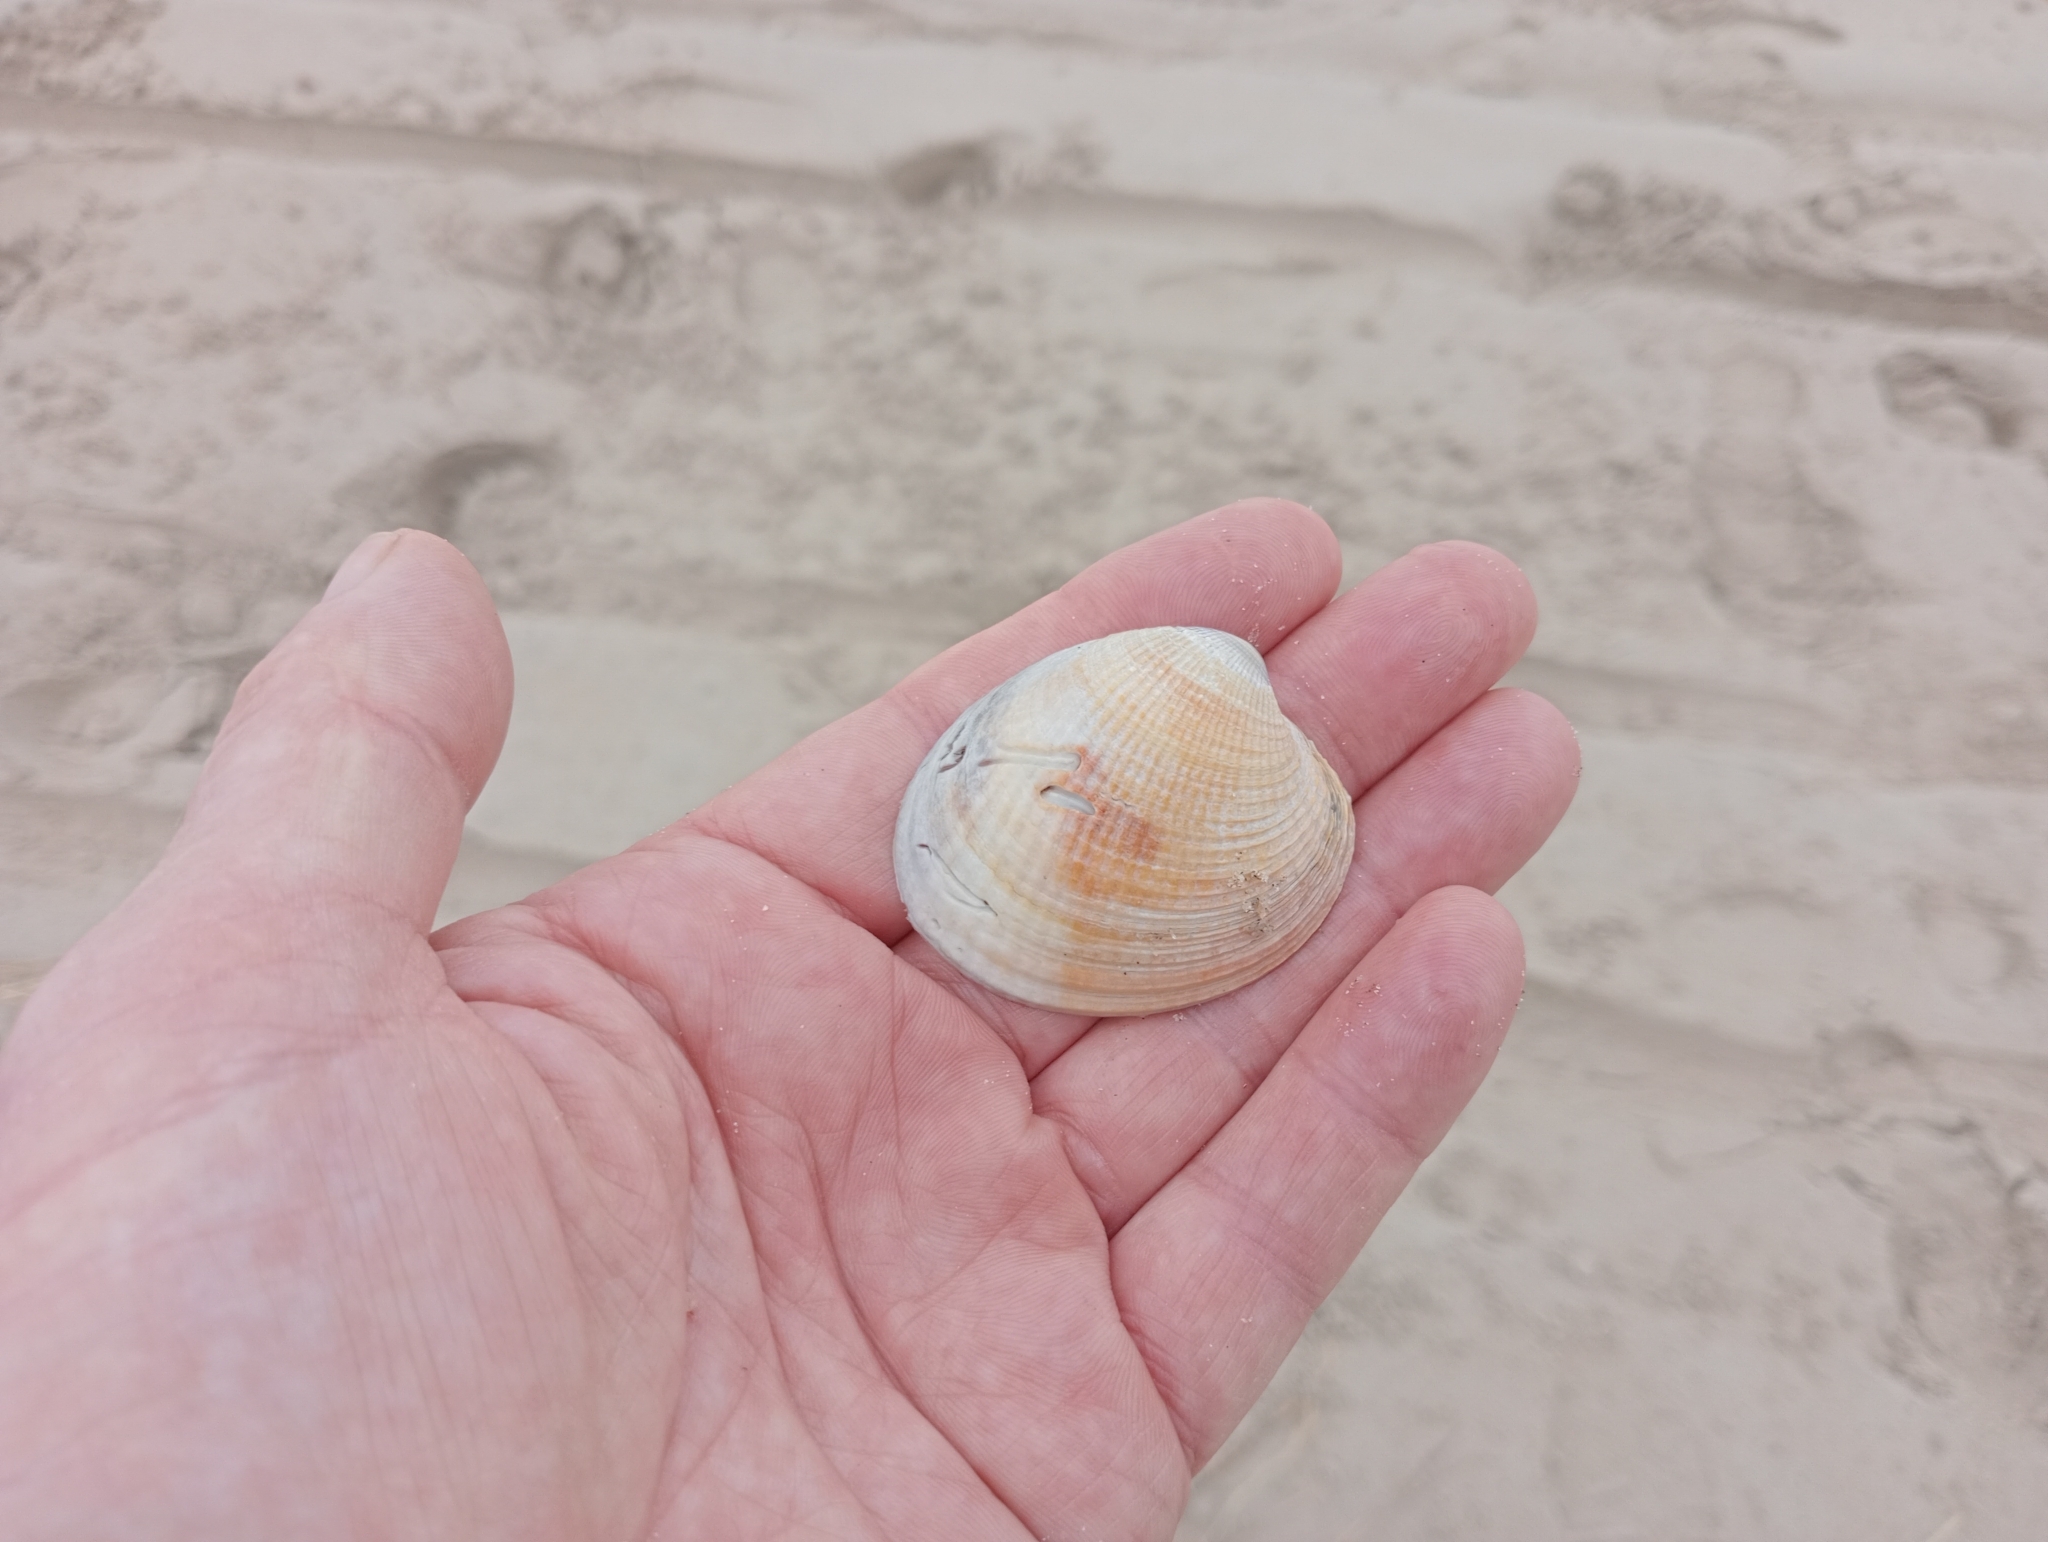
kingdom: Animalia
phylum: Mollusca
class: Bivalvia
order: Venerida
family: Veneridae
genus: Austrovenus
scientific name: Austrovenus stutchburyi
